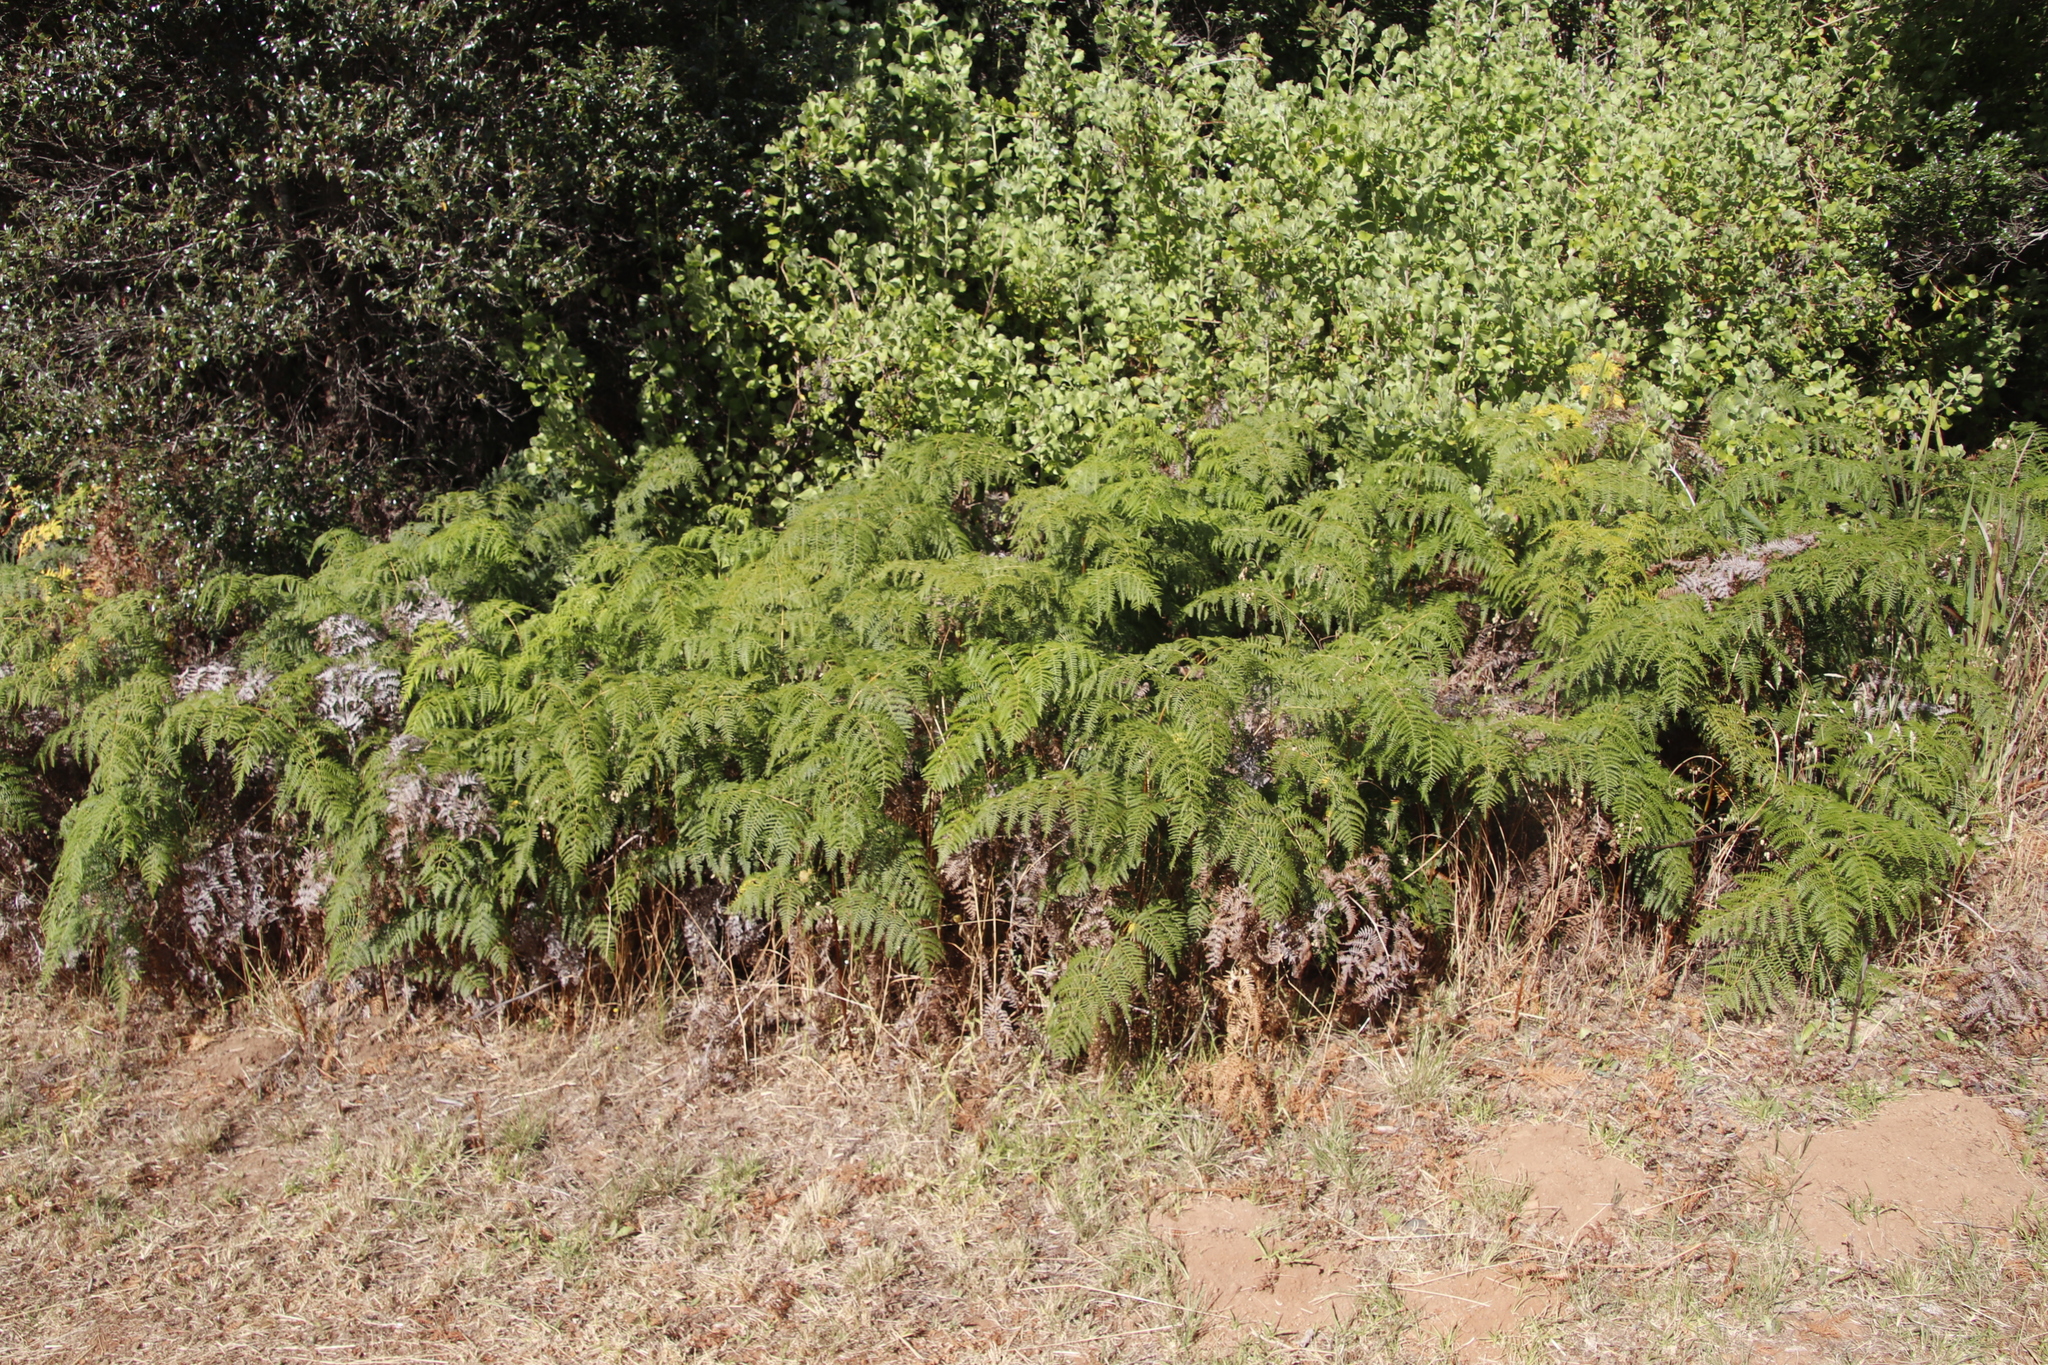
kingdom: Plantae
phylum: Tracheophyta
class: Polypodiopsida
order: Polypodiales
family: Dennstaedtiaceae
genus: Pteridium
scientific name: Pteridium aquilinum
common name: Bracken
